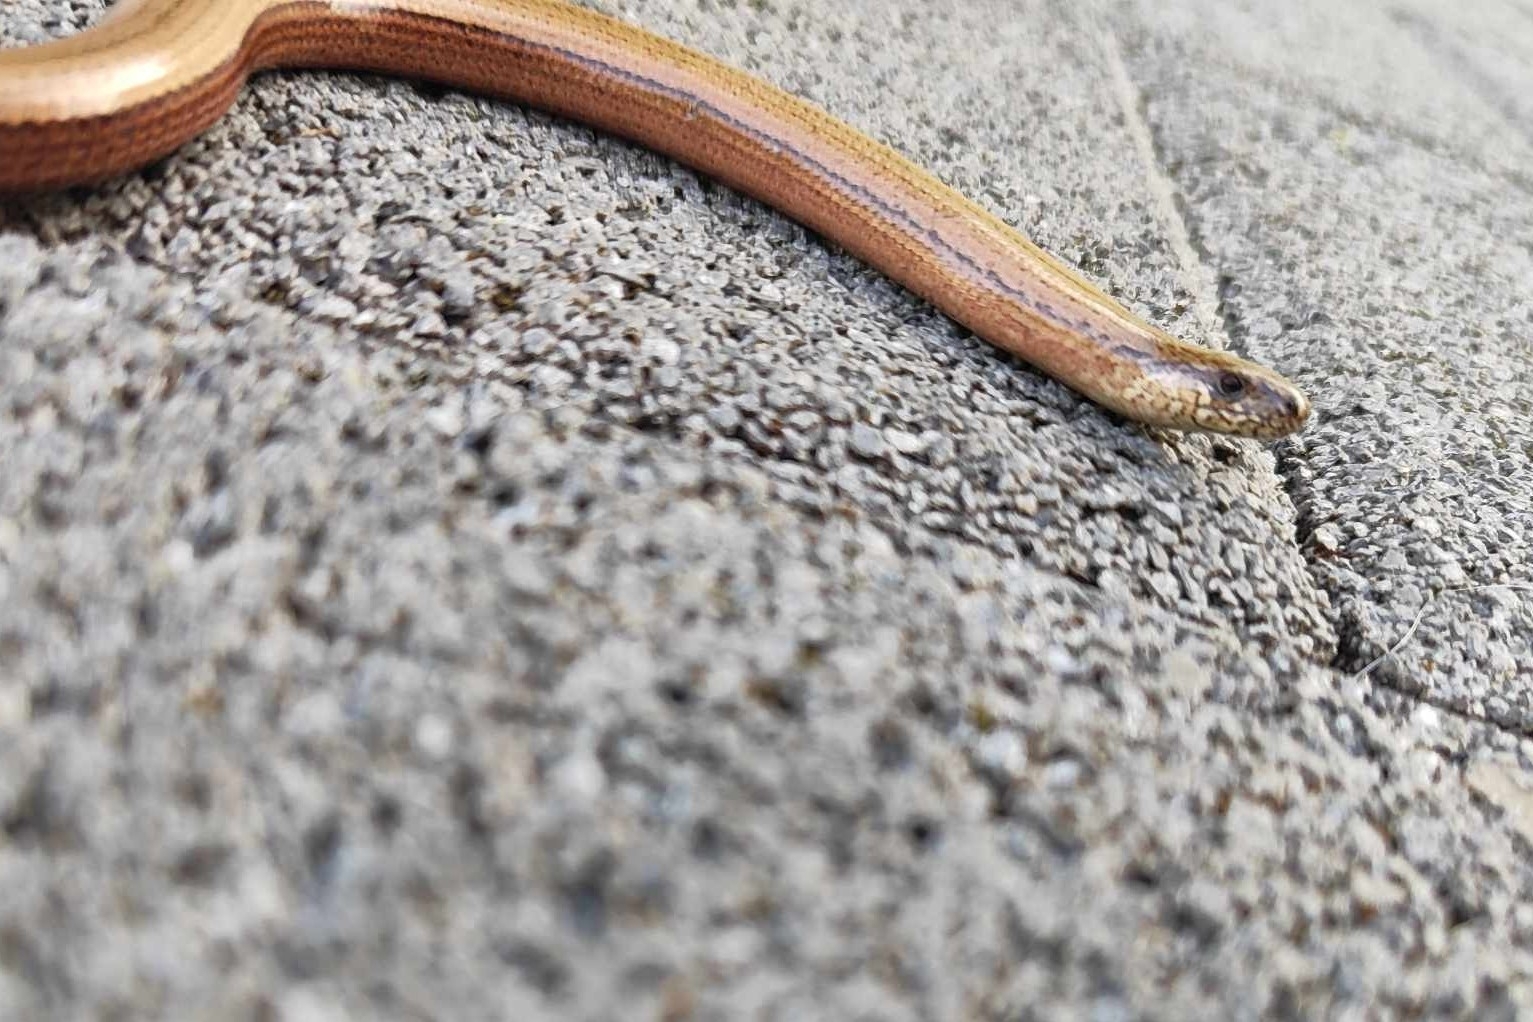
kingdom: Animalia
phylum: Chordata
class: Squamata
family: Anguidae
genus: Anguis
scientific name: Anguis fragilis
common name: Slow worm
